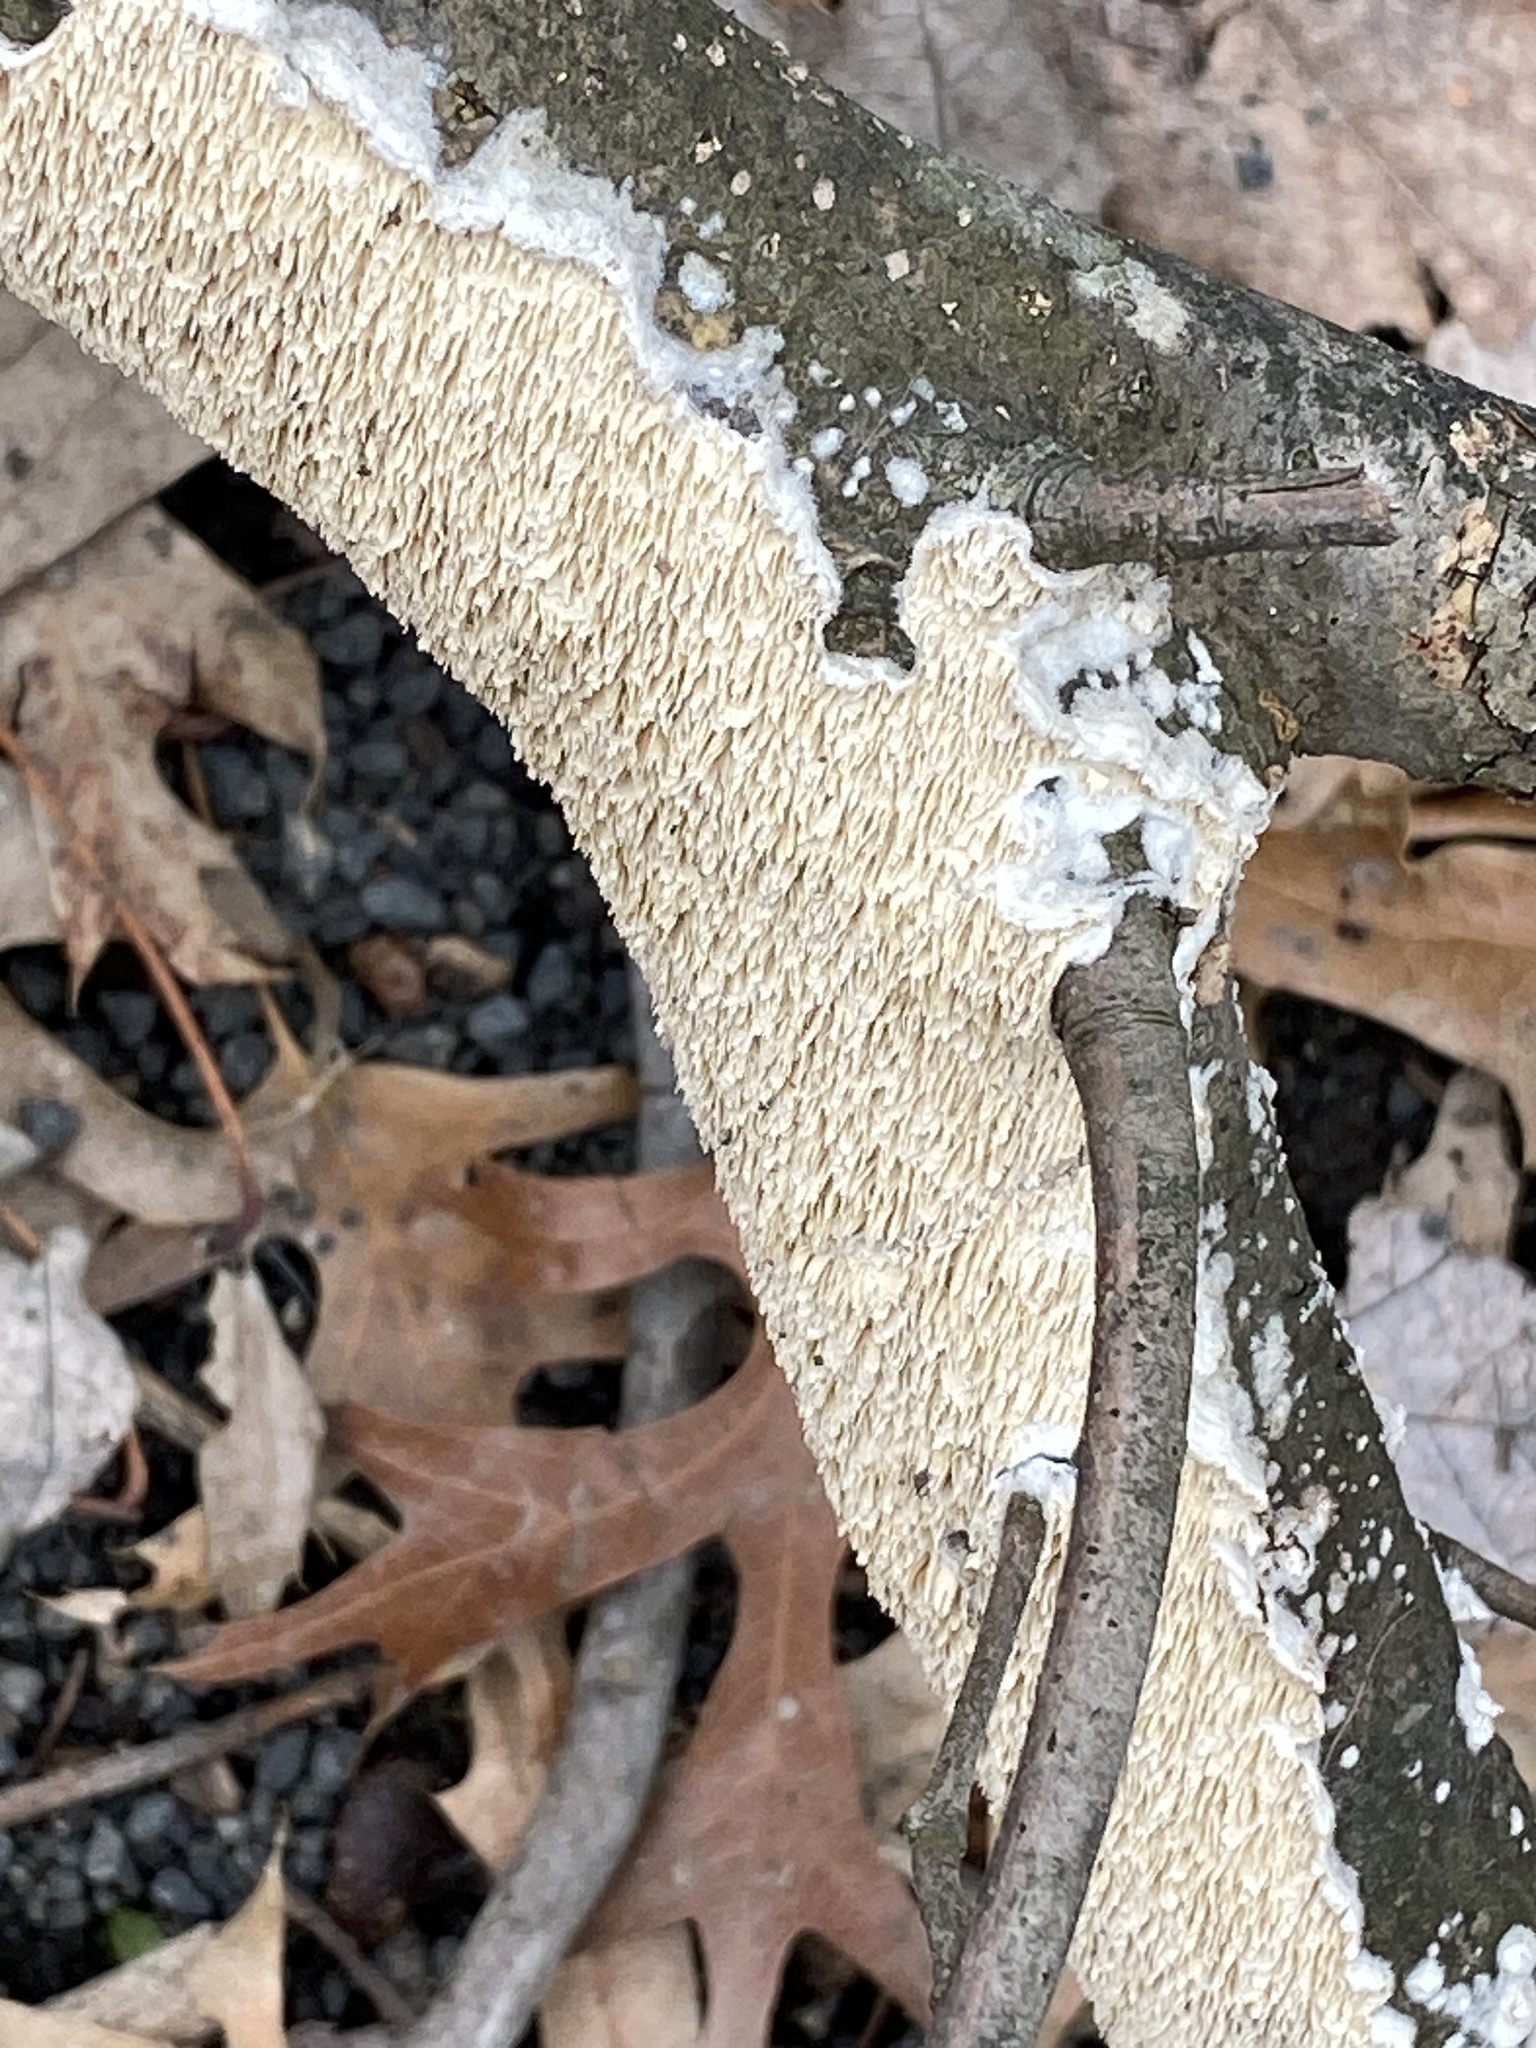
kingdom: Fungi
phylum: Basidiomycota
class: Agaricomycetes
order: Polyporales
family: Irpicaceae
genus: Irpex
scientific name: Irpex lacteus
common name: Milk-white toothed polypore
